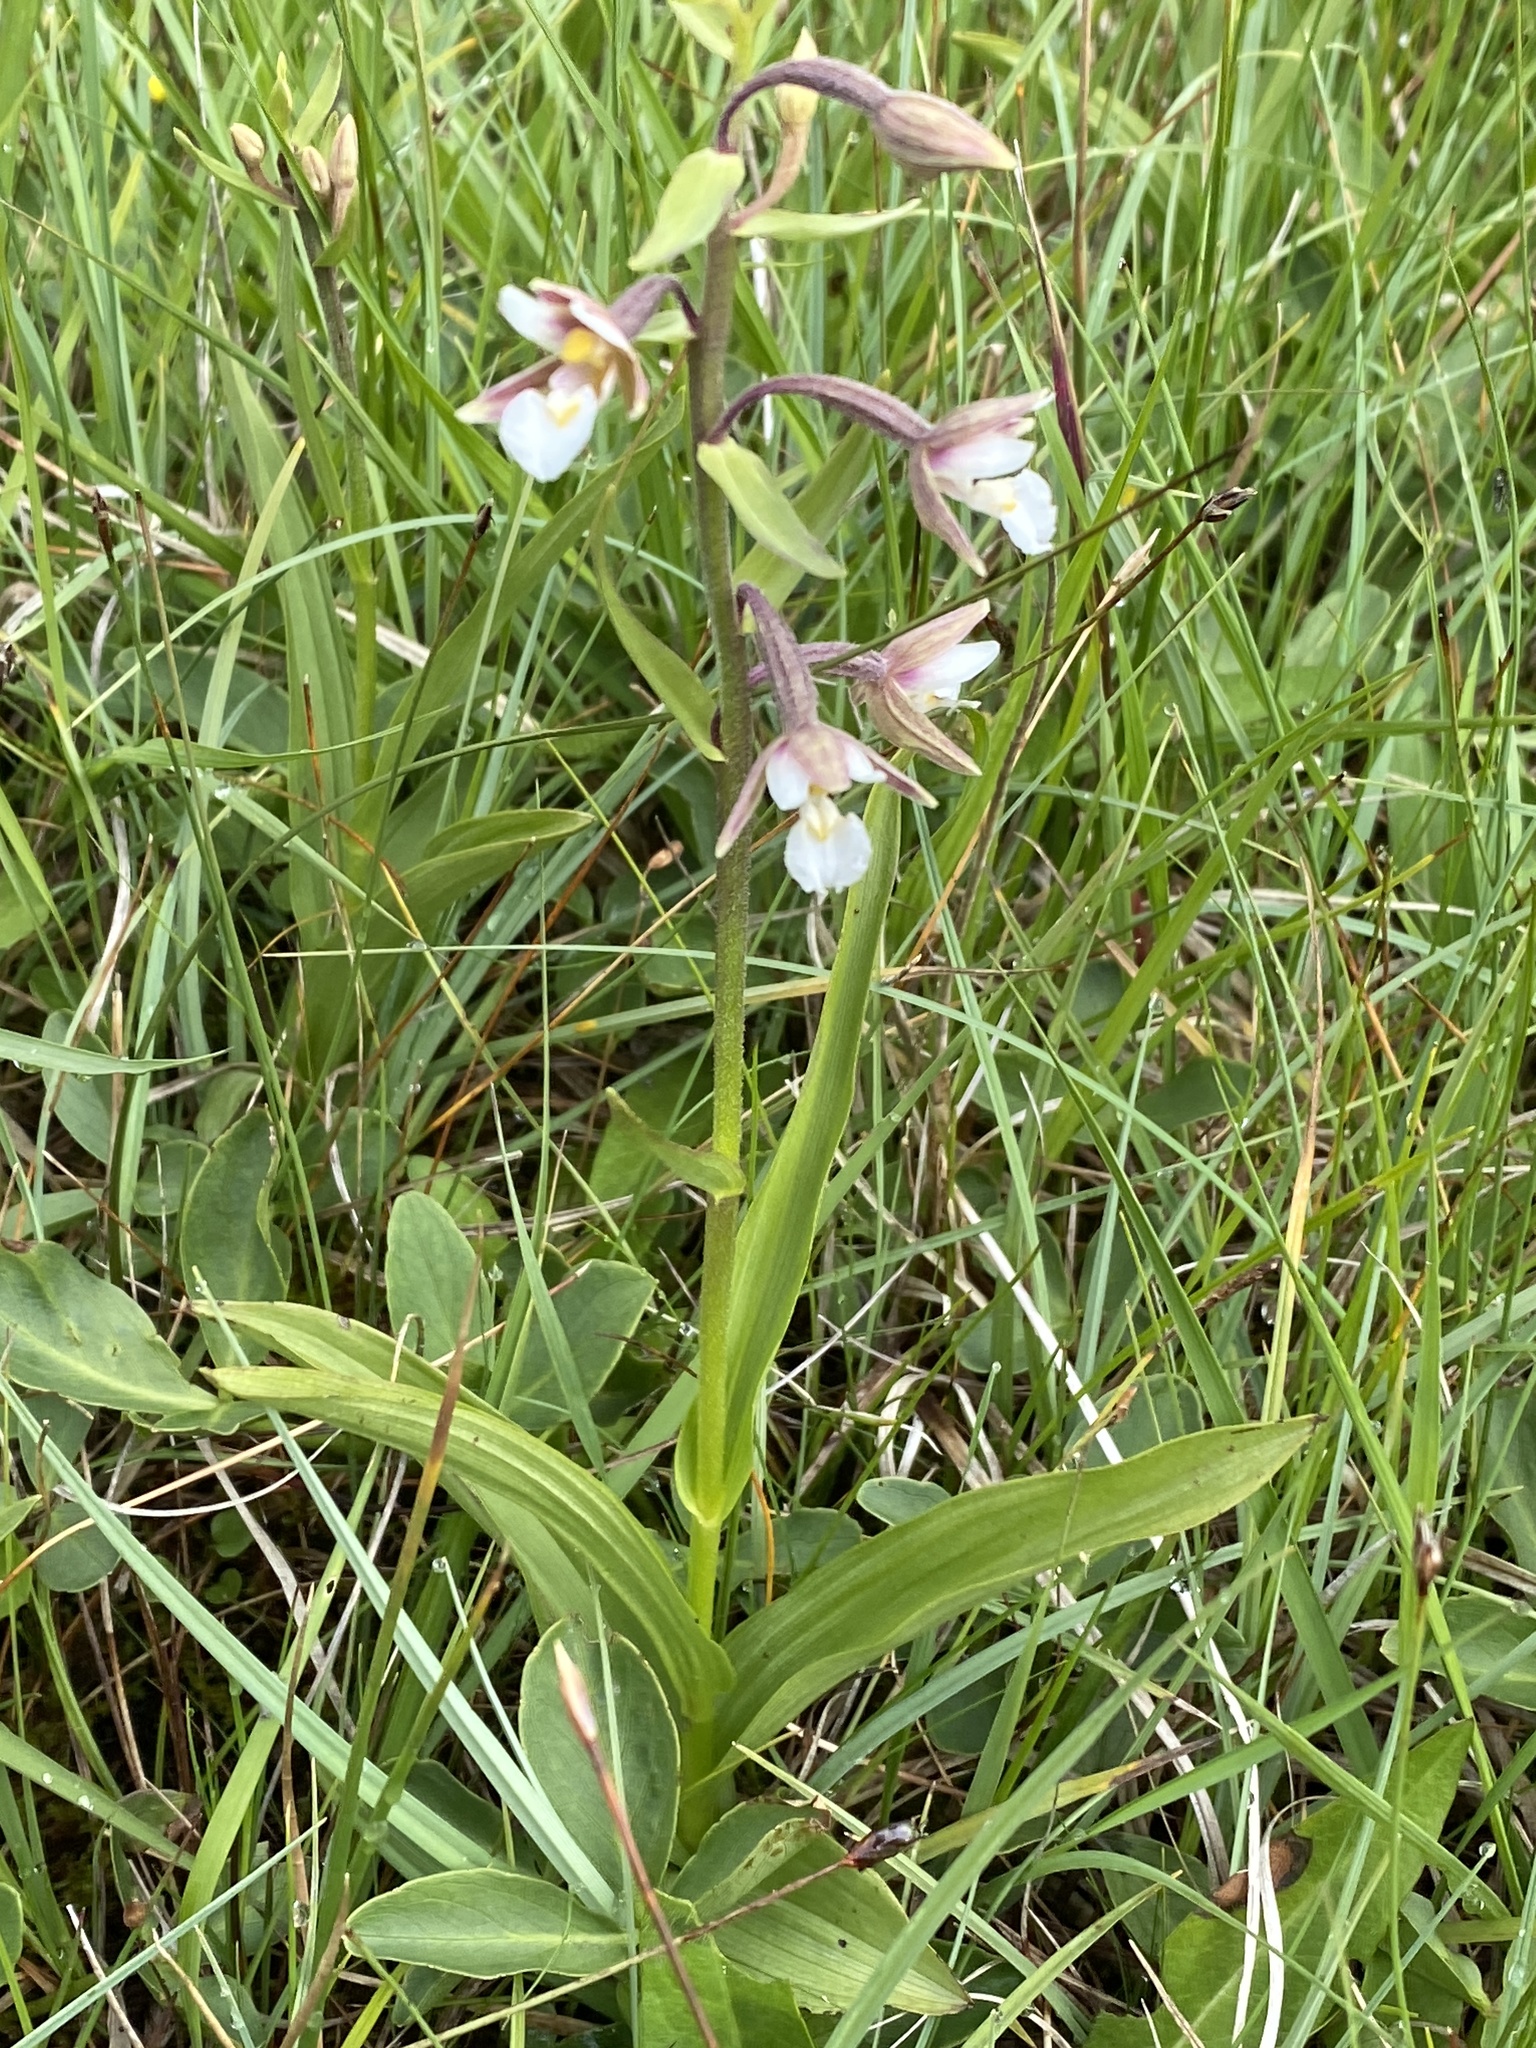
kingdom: Plantae
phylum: Tracheophyta
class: Liliopsida
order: Asparagales
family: Orchidaceae
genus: Epipactis
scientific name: Epipactis palustris
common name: Marsh helleborine
